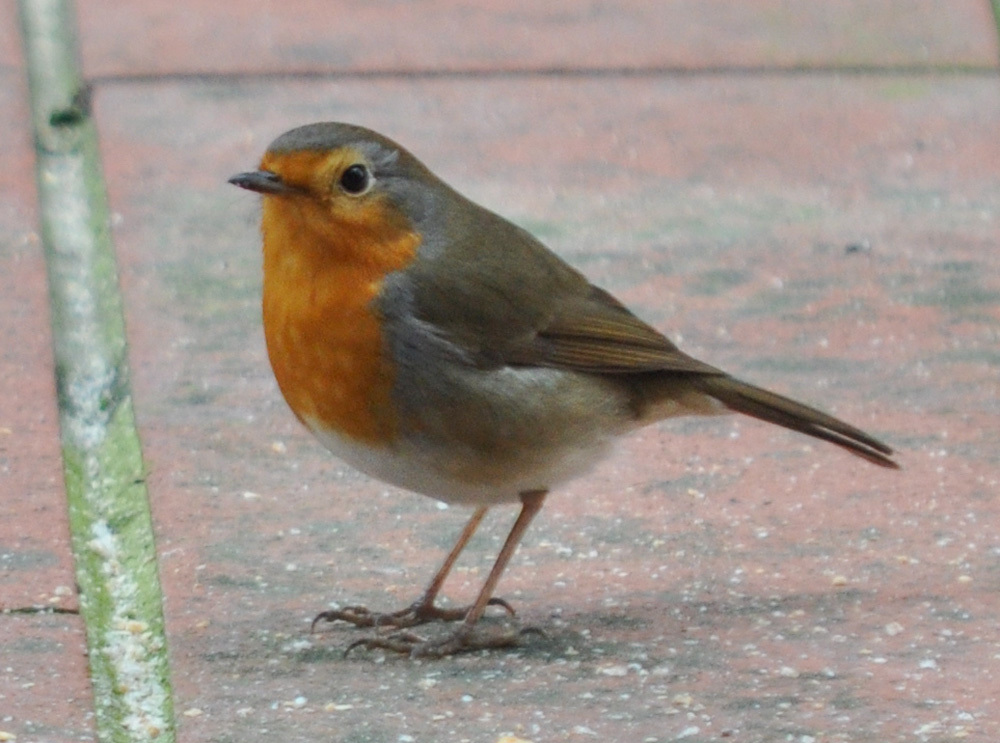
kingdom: Animalia
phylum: Chordata
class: Aves
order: Passeriformes
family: Muscicapidae
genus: Erithacus
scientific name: Erithacus rubecula
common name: European robin
